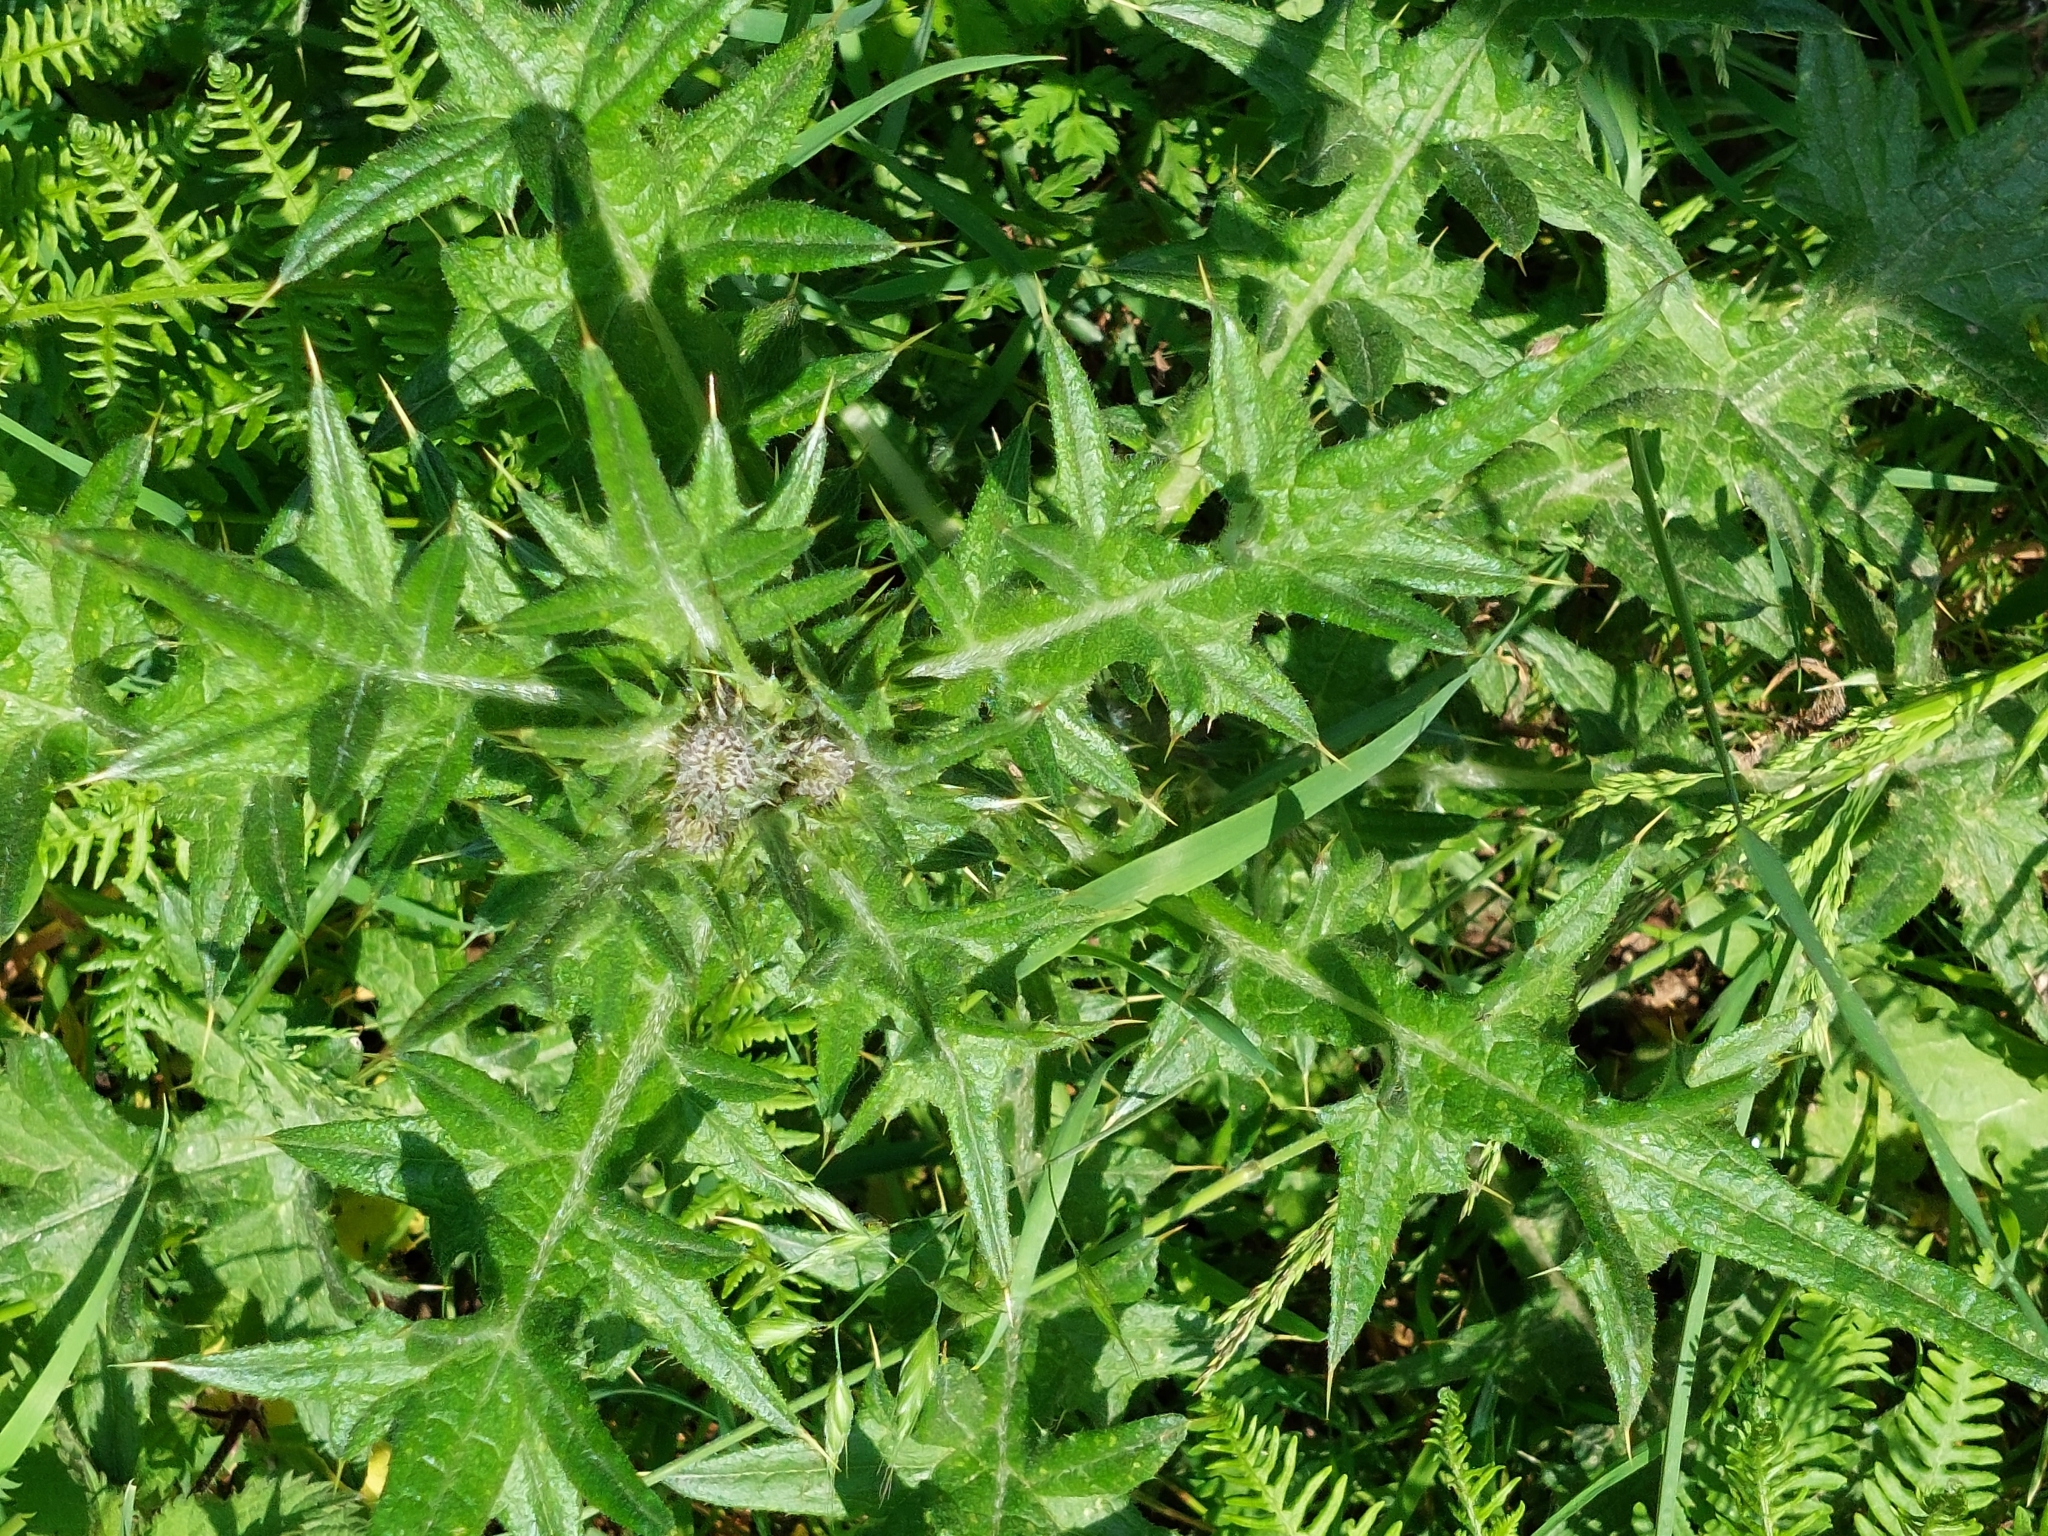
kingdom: Plantae
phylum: Tracheophyta
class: Magnoliopsida
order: Asterales
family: Asteraceae
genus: Cirsium
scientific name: Cirsium vulgare
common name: Bull thistle
